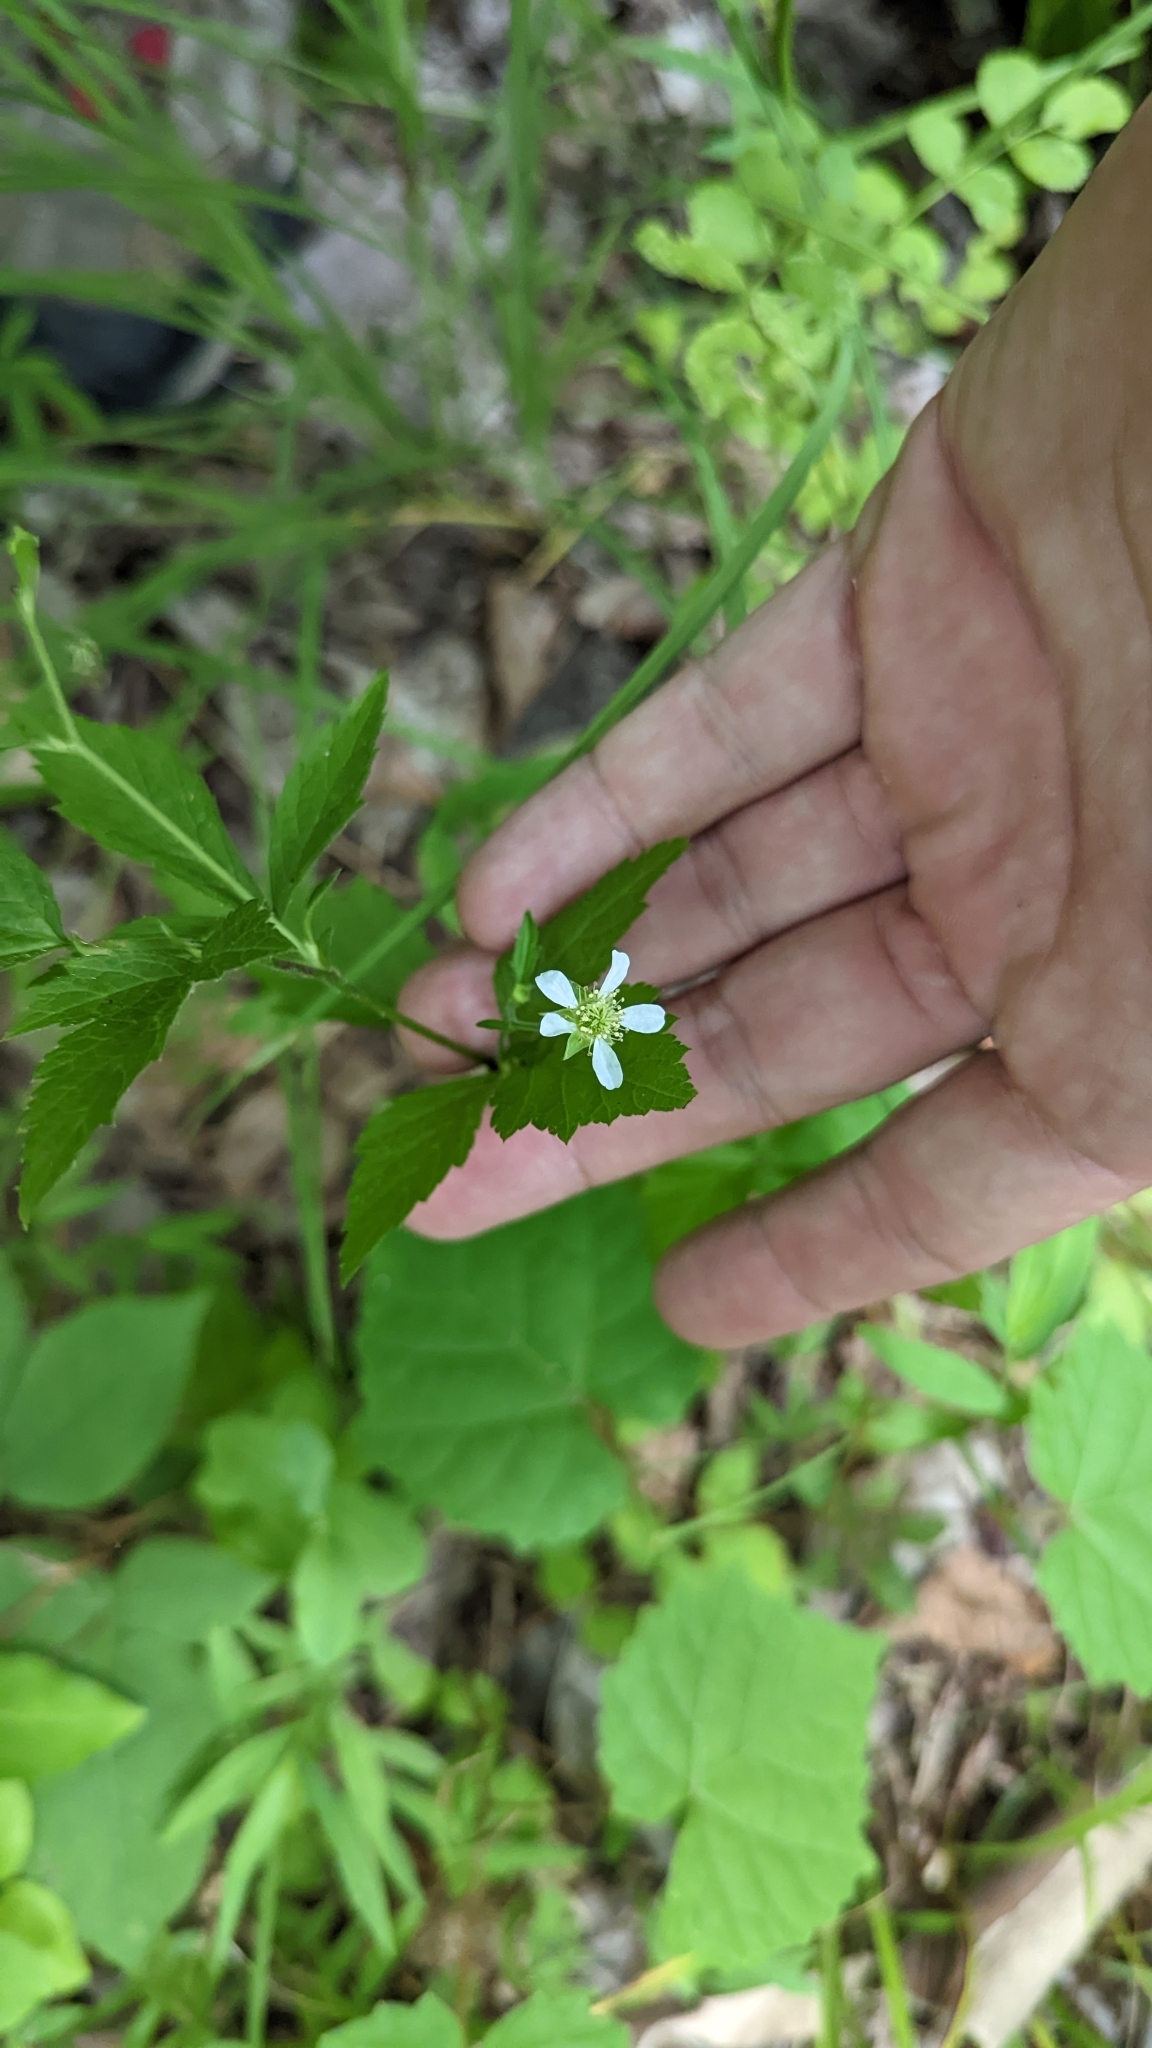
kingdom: Plantae
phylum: Tracheophyta
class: Magnoliopsida
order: Rosales
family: Rosaceae
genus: Geum
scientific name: Geum canadense
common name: White avens
